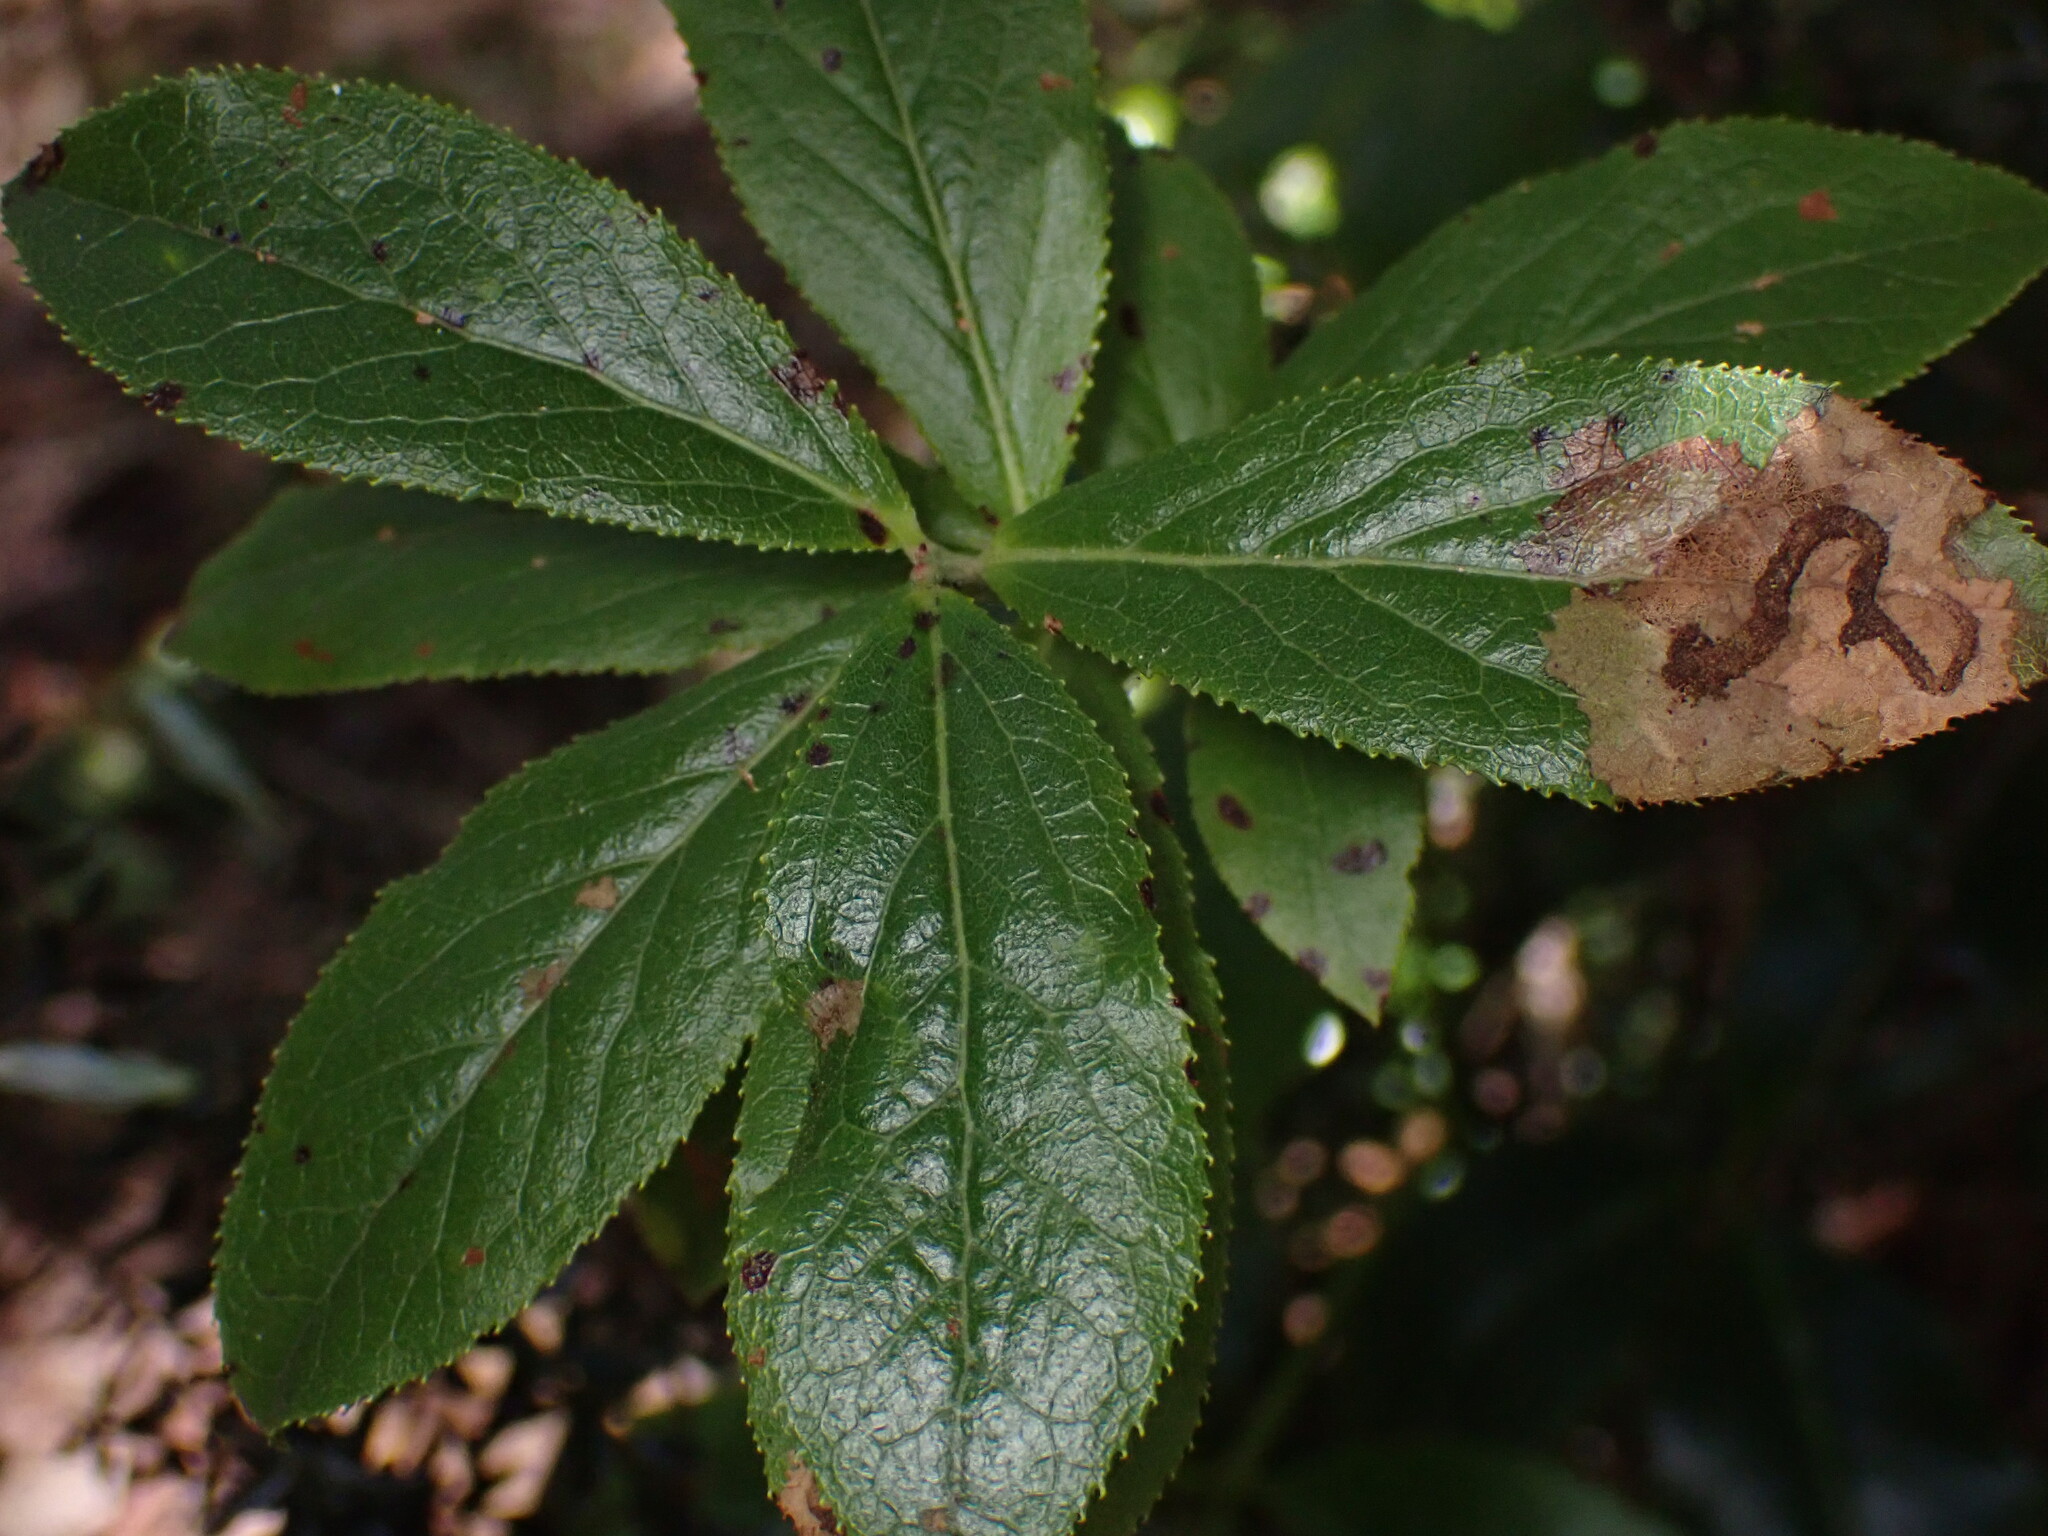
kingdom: Plantae
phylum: Tracheophyta
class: Magnoliopsida
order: Ericales
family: Ericaceae
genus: Vaccinium
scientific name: Vaccinium calycinum
